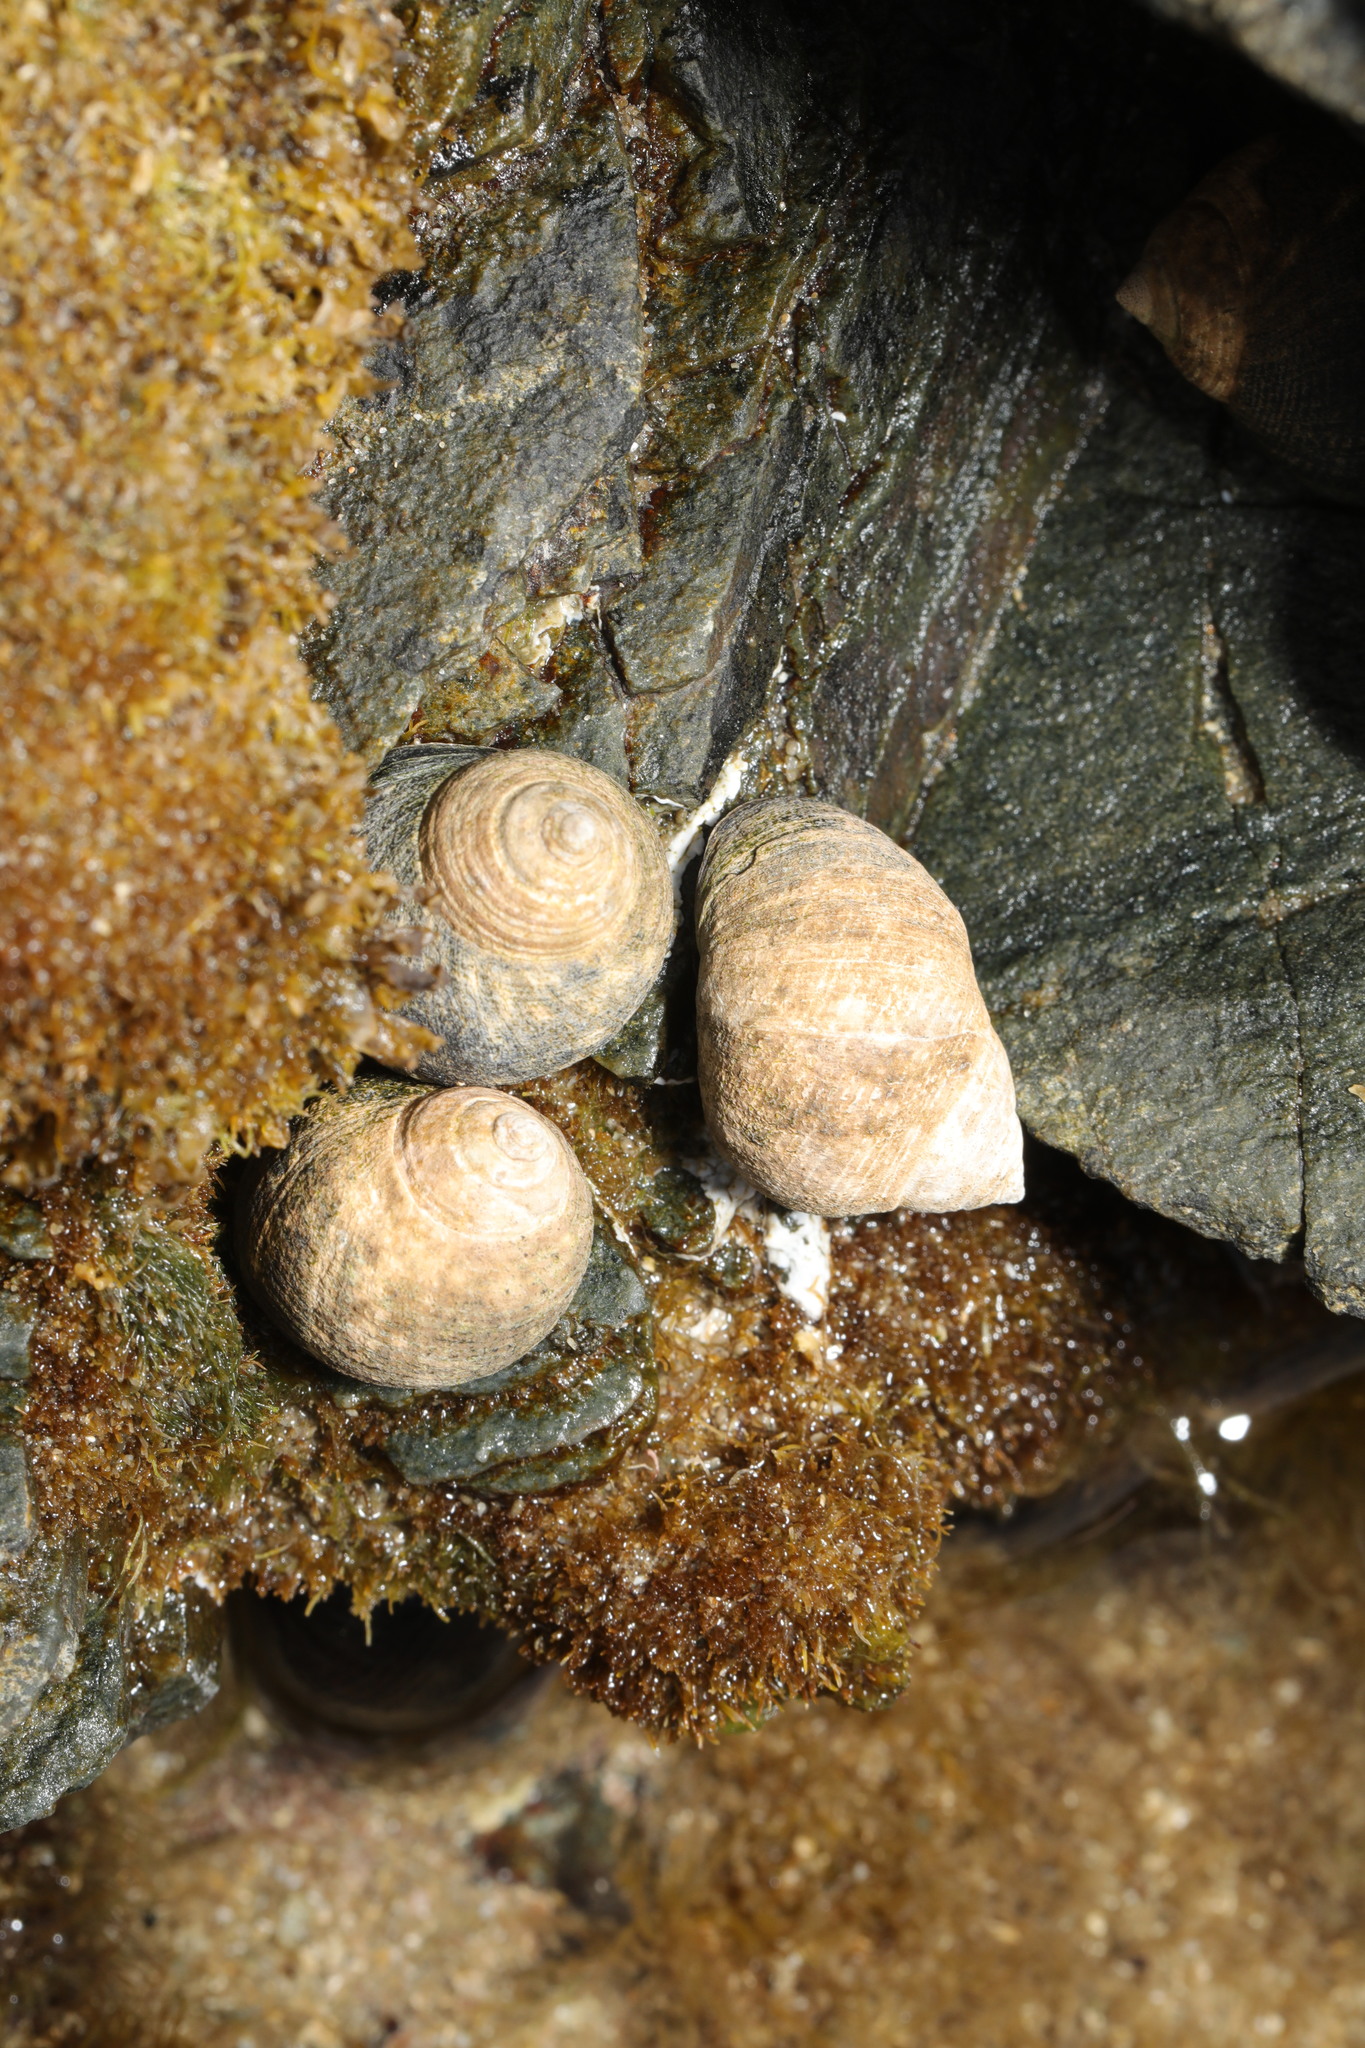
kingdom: Animalia
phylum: Mollusca
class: Gastropoda
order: Littorinimorpha
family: Littorinidae
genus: Littorina
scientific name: Littorina littorea
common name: Common periwinkle
